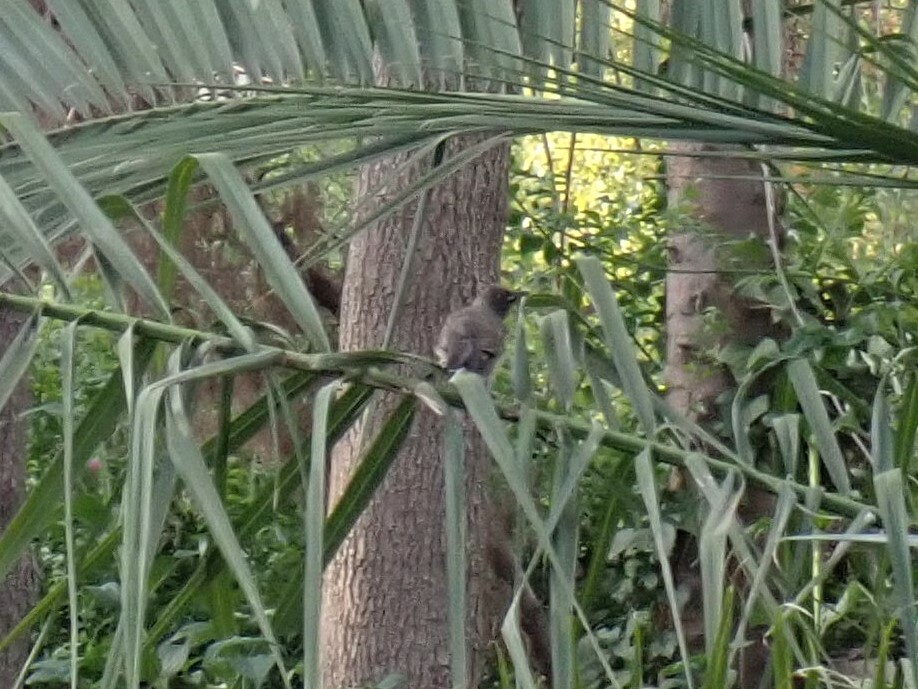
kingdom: Animalia
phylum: Chordata
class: Aves
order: Passeriformes
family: Pycnonotidae
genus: Pycnonotus
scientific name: Pycnonotus barbatus
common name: Common bulbul
